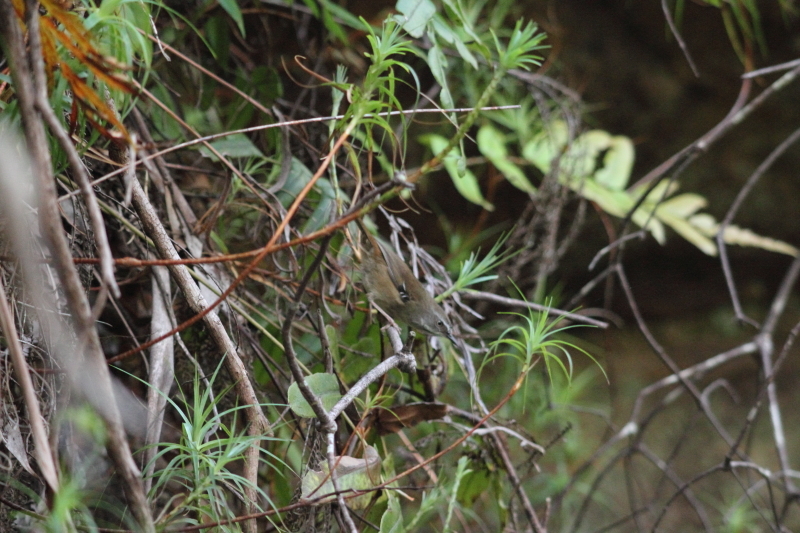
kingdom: Animalia
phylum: Chordata
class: Aves
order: Passeriformes
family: Acanthizidae
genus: Sericornis
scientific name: Sericornis frontalis
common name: White-browed scrubwren
